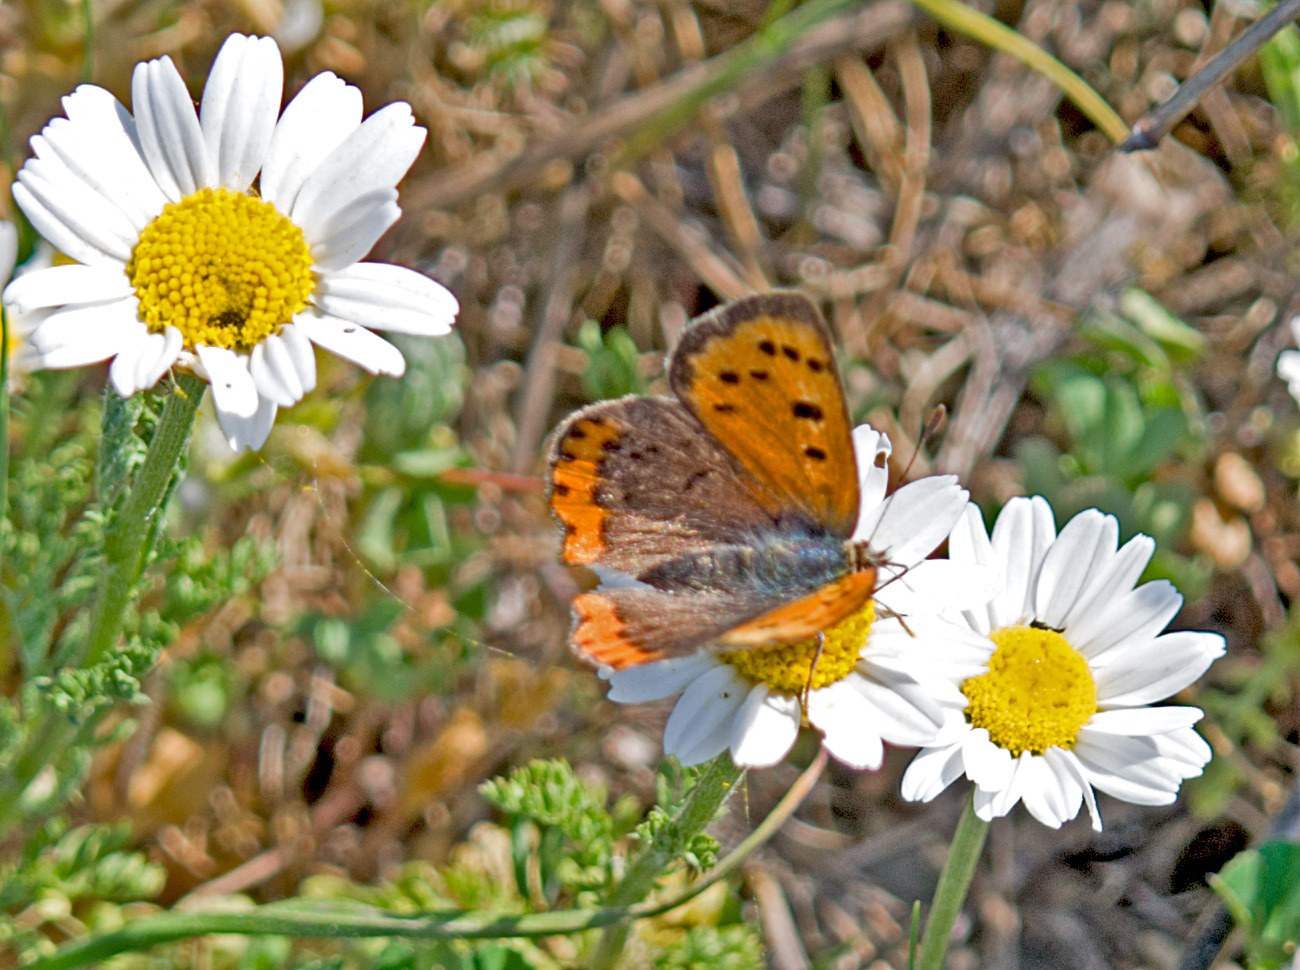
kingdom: Animalia
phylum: Arthropoda
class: Insecta
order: Lepidoptera
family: Lycaenidae
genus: Lycaena
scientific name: Lycaena phlaeas
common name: Small copper
